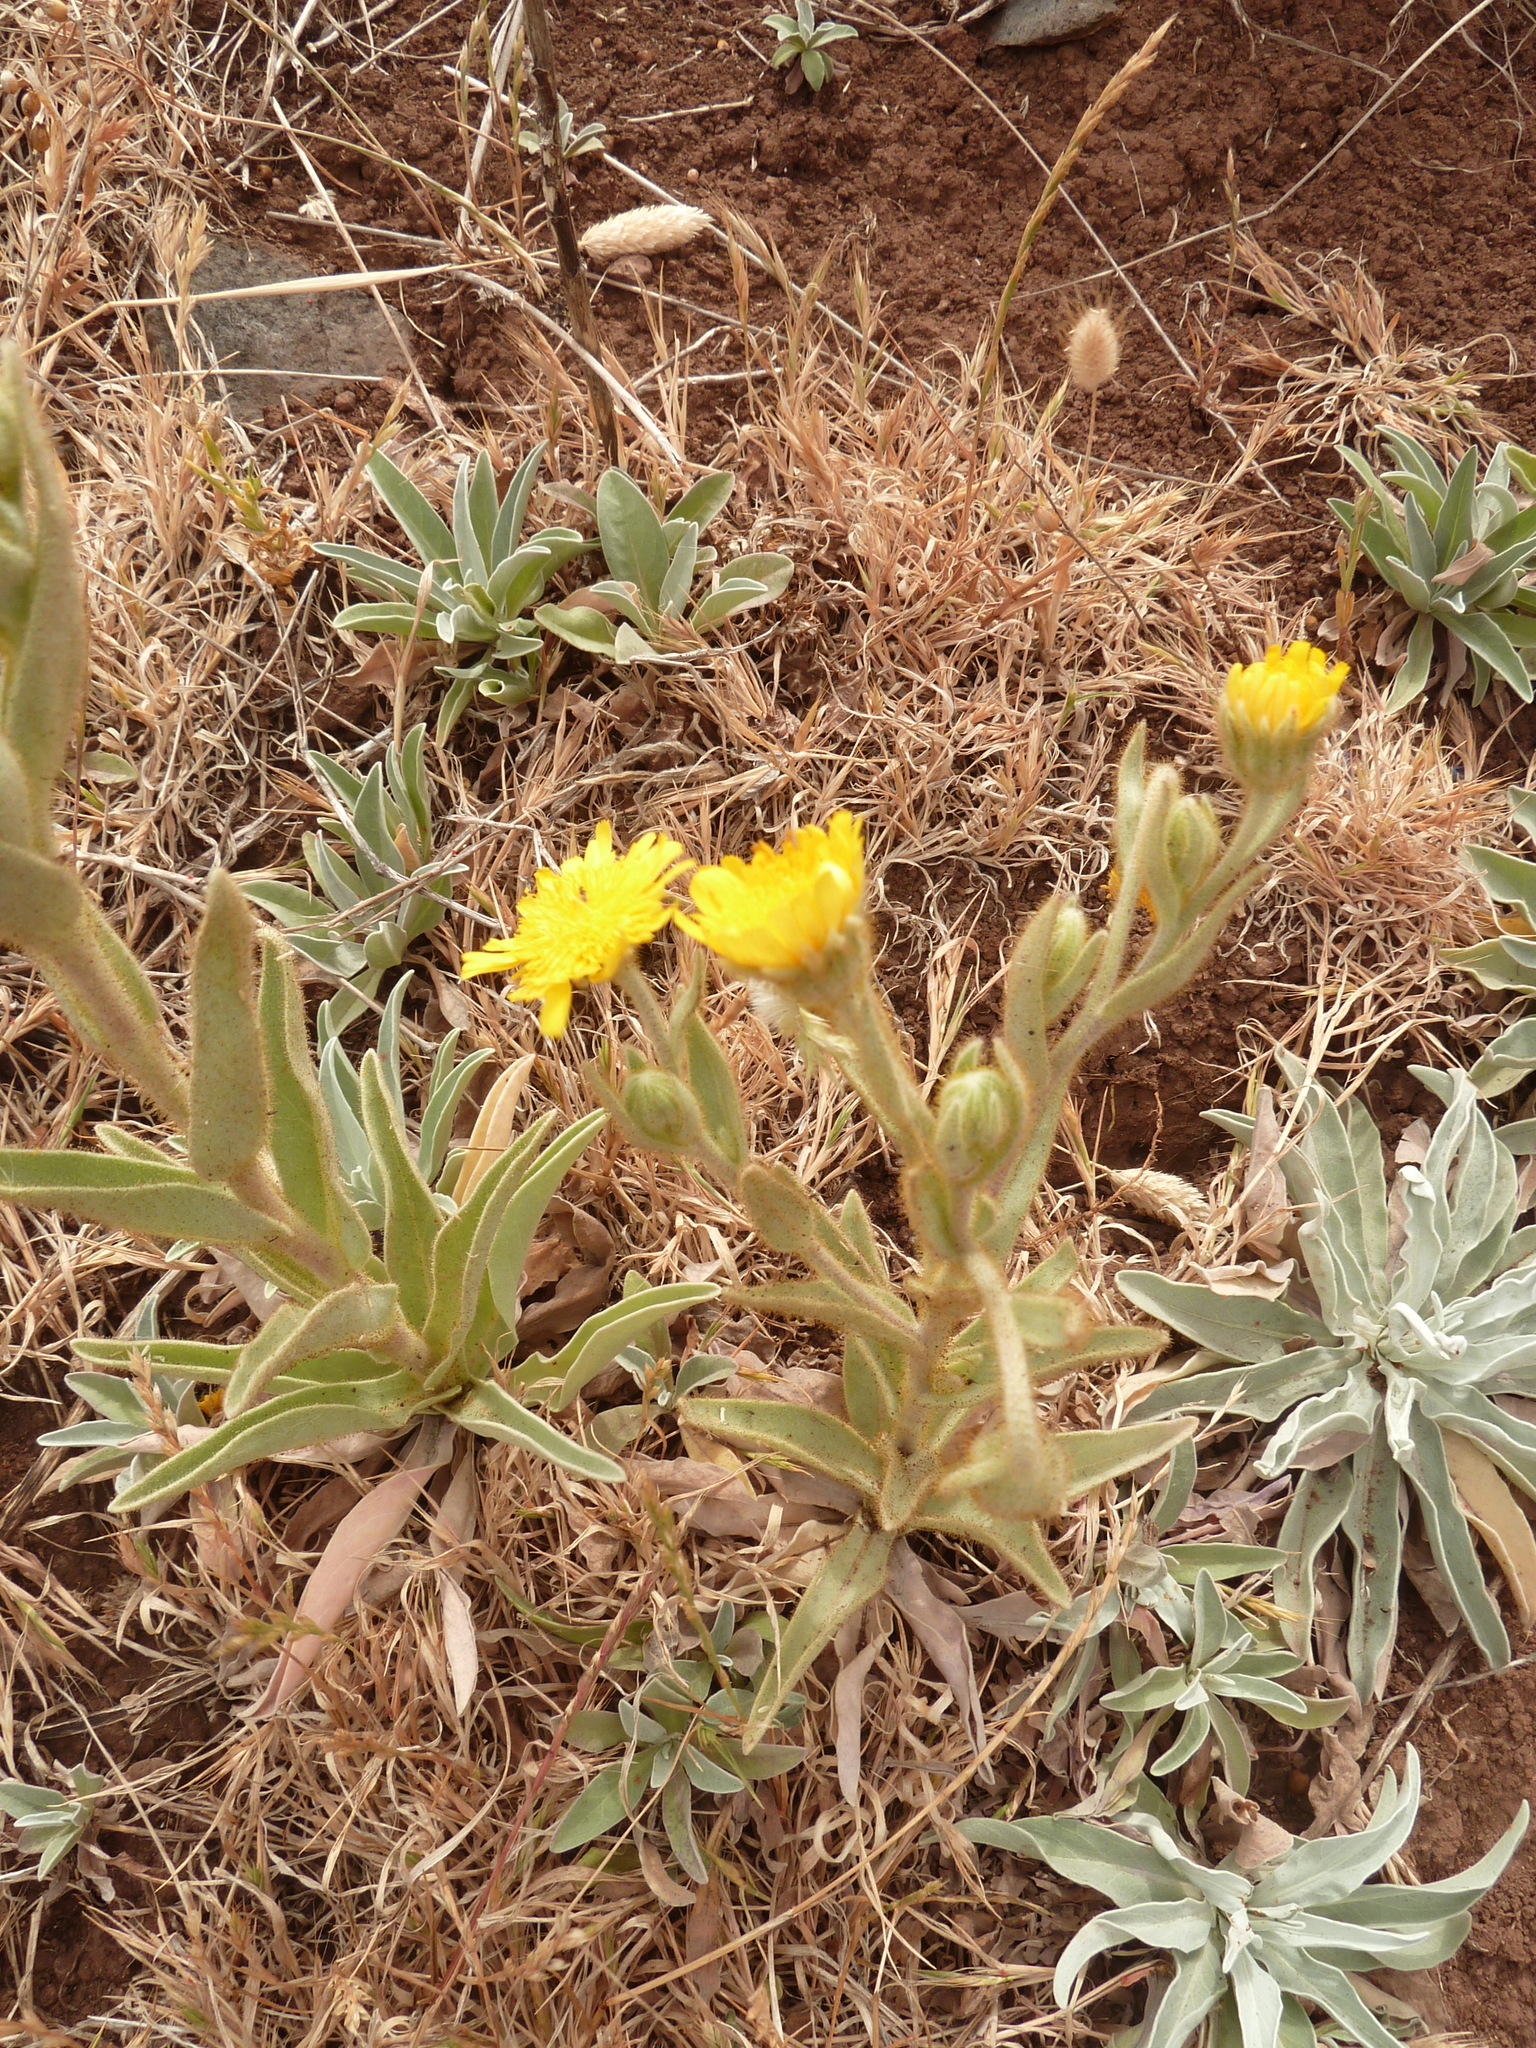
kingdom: Plantae
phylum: Tracheophyta
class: Magnoliopsida
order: Asterales
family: Asteraceae
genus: Andryala
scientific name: Andryala glandulosa
